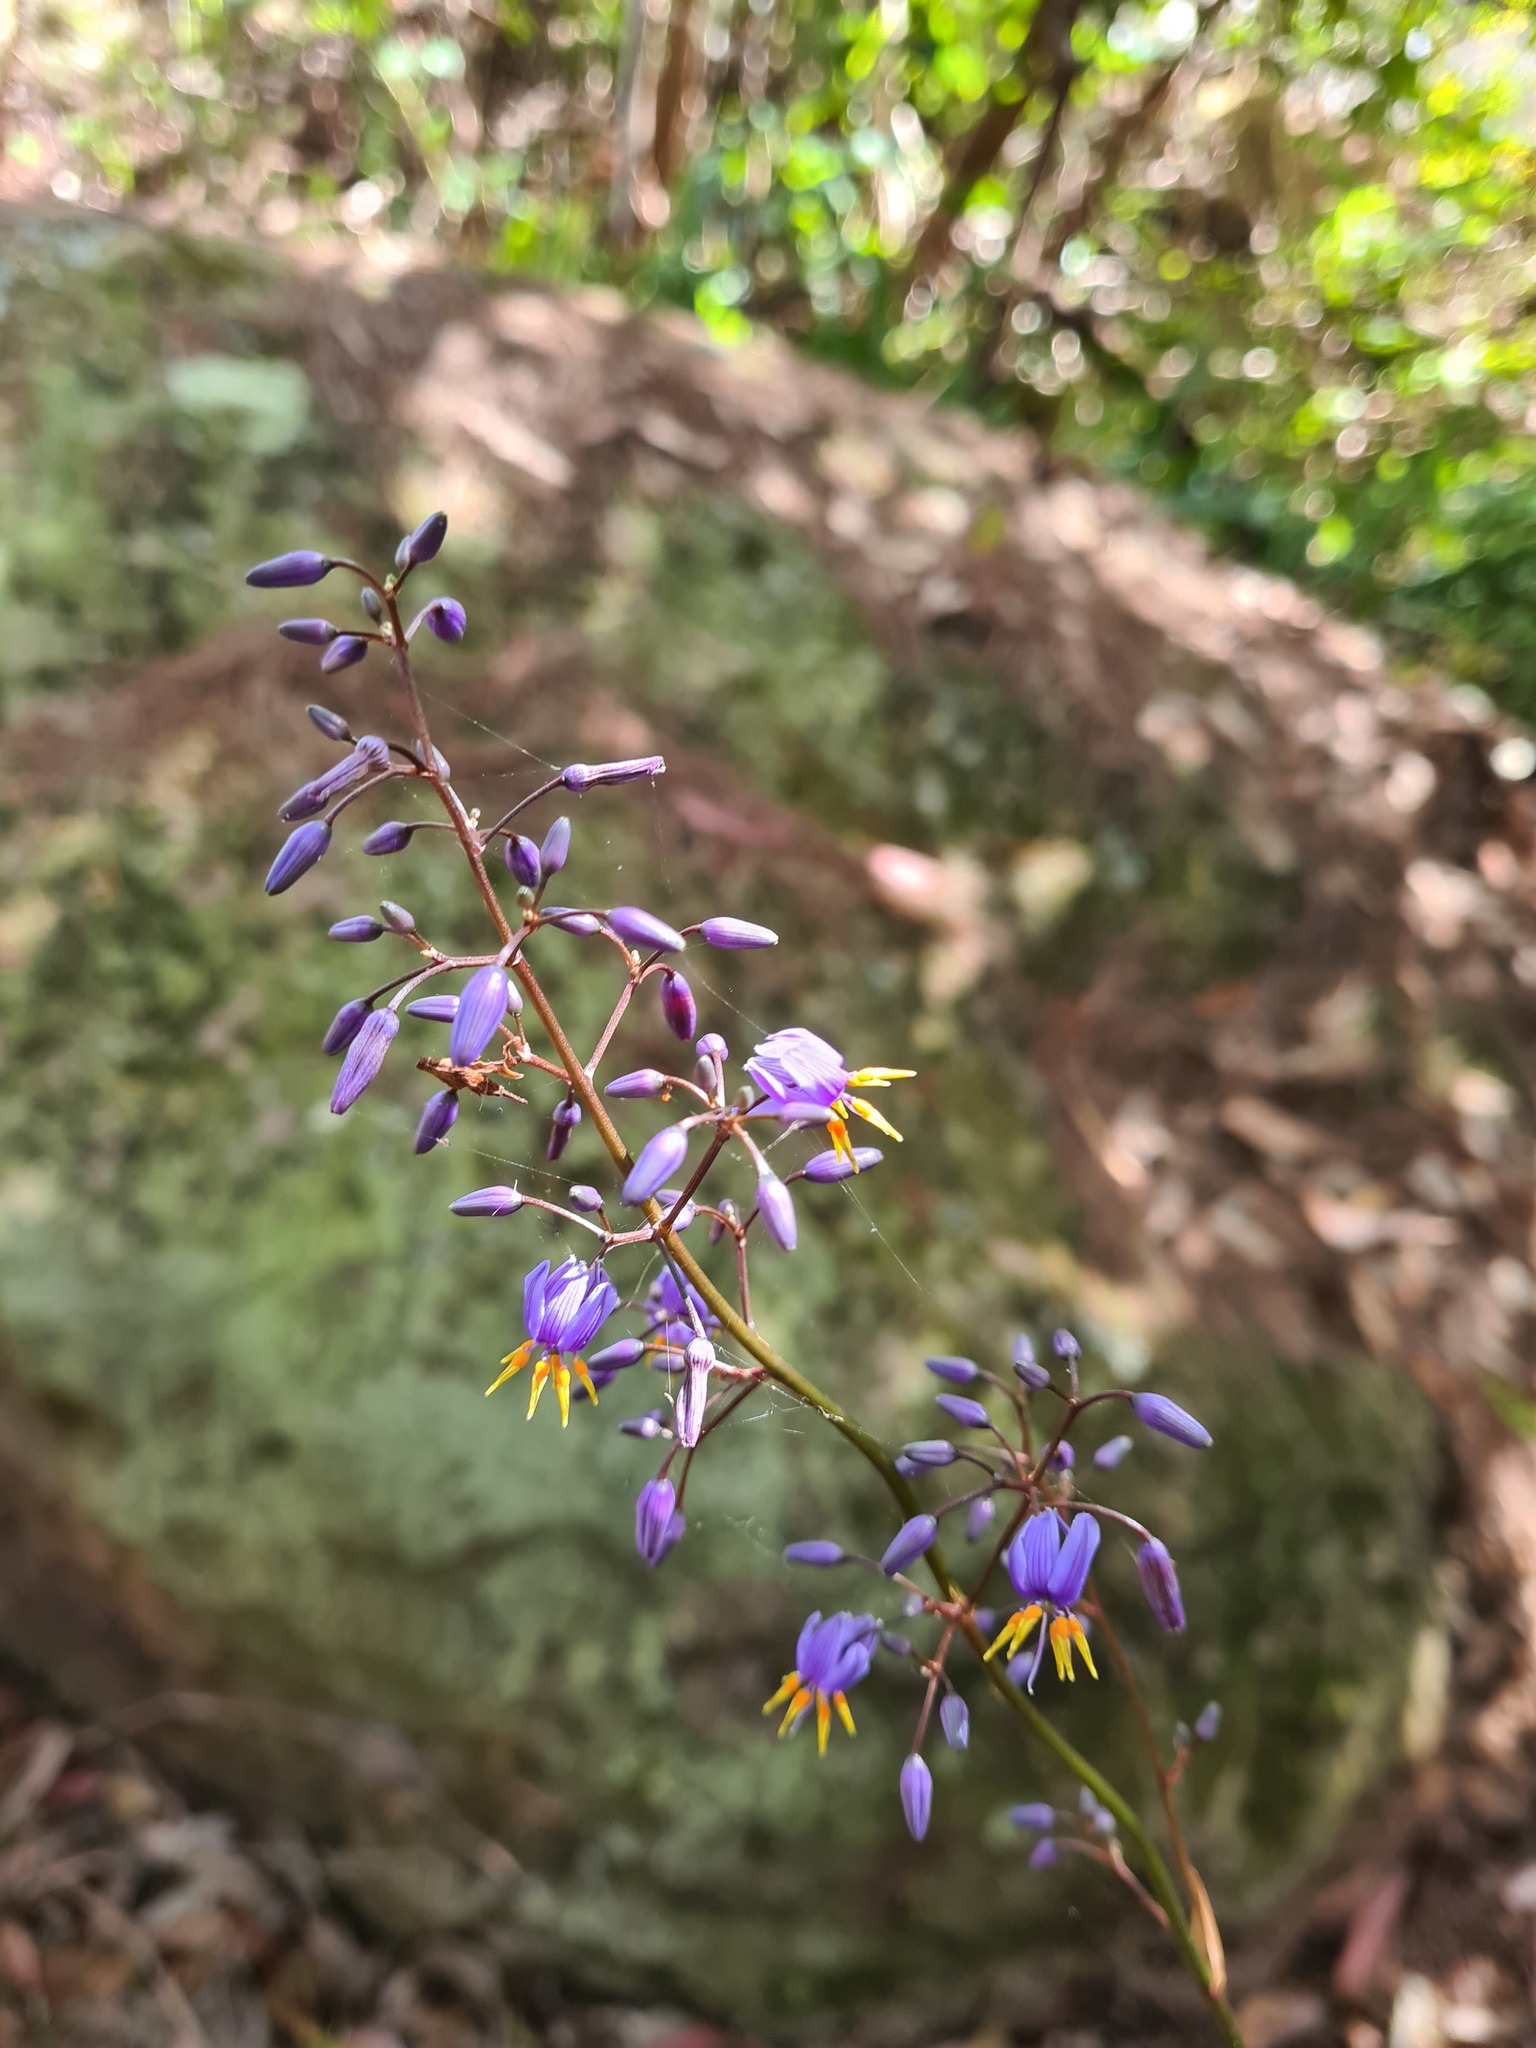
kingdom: Plantae
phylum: Tracheophyta
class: Liliopsida
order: Asparagales
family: Asphodelaceae
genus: Dianella
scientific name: Dianella caerulea
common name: Blue flax-lily
